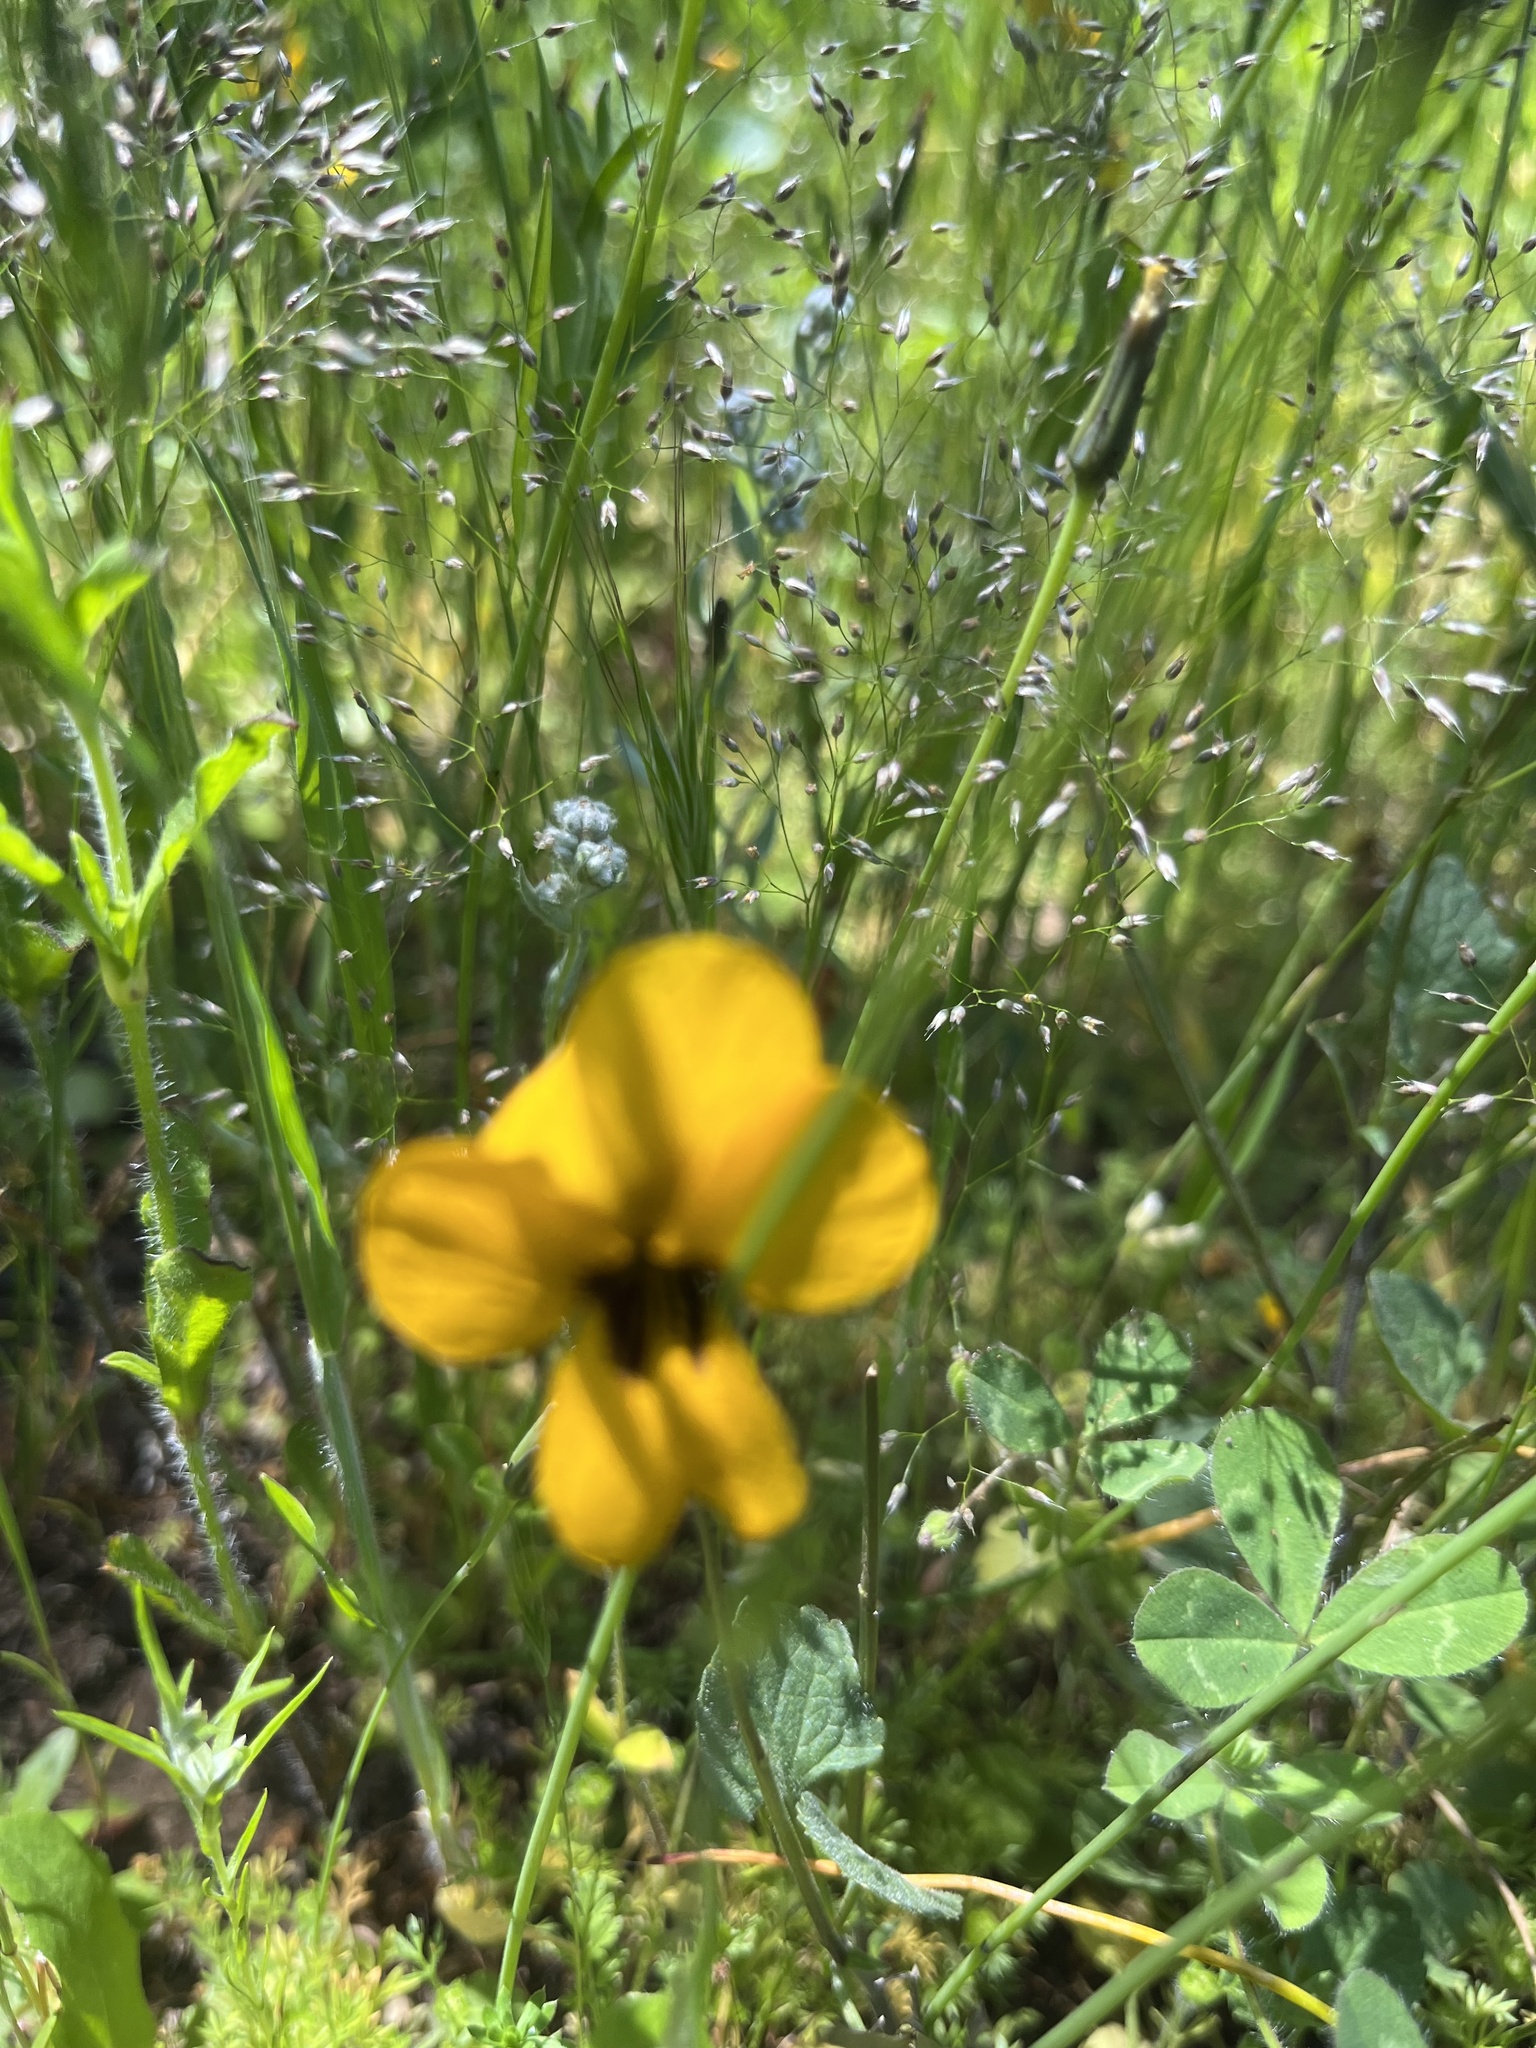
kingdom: Plantae
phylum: Tracheophyta
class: Magnoliopsida
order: Malpighiales
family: Violaceae
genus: Viola
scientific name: Viola pedunculata
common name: California golden violet
